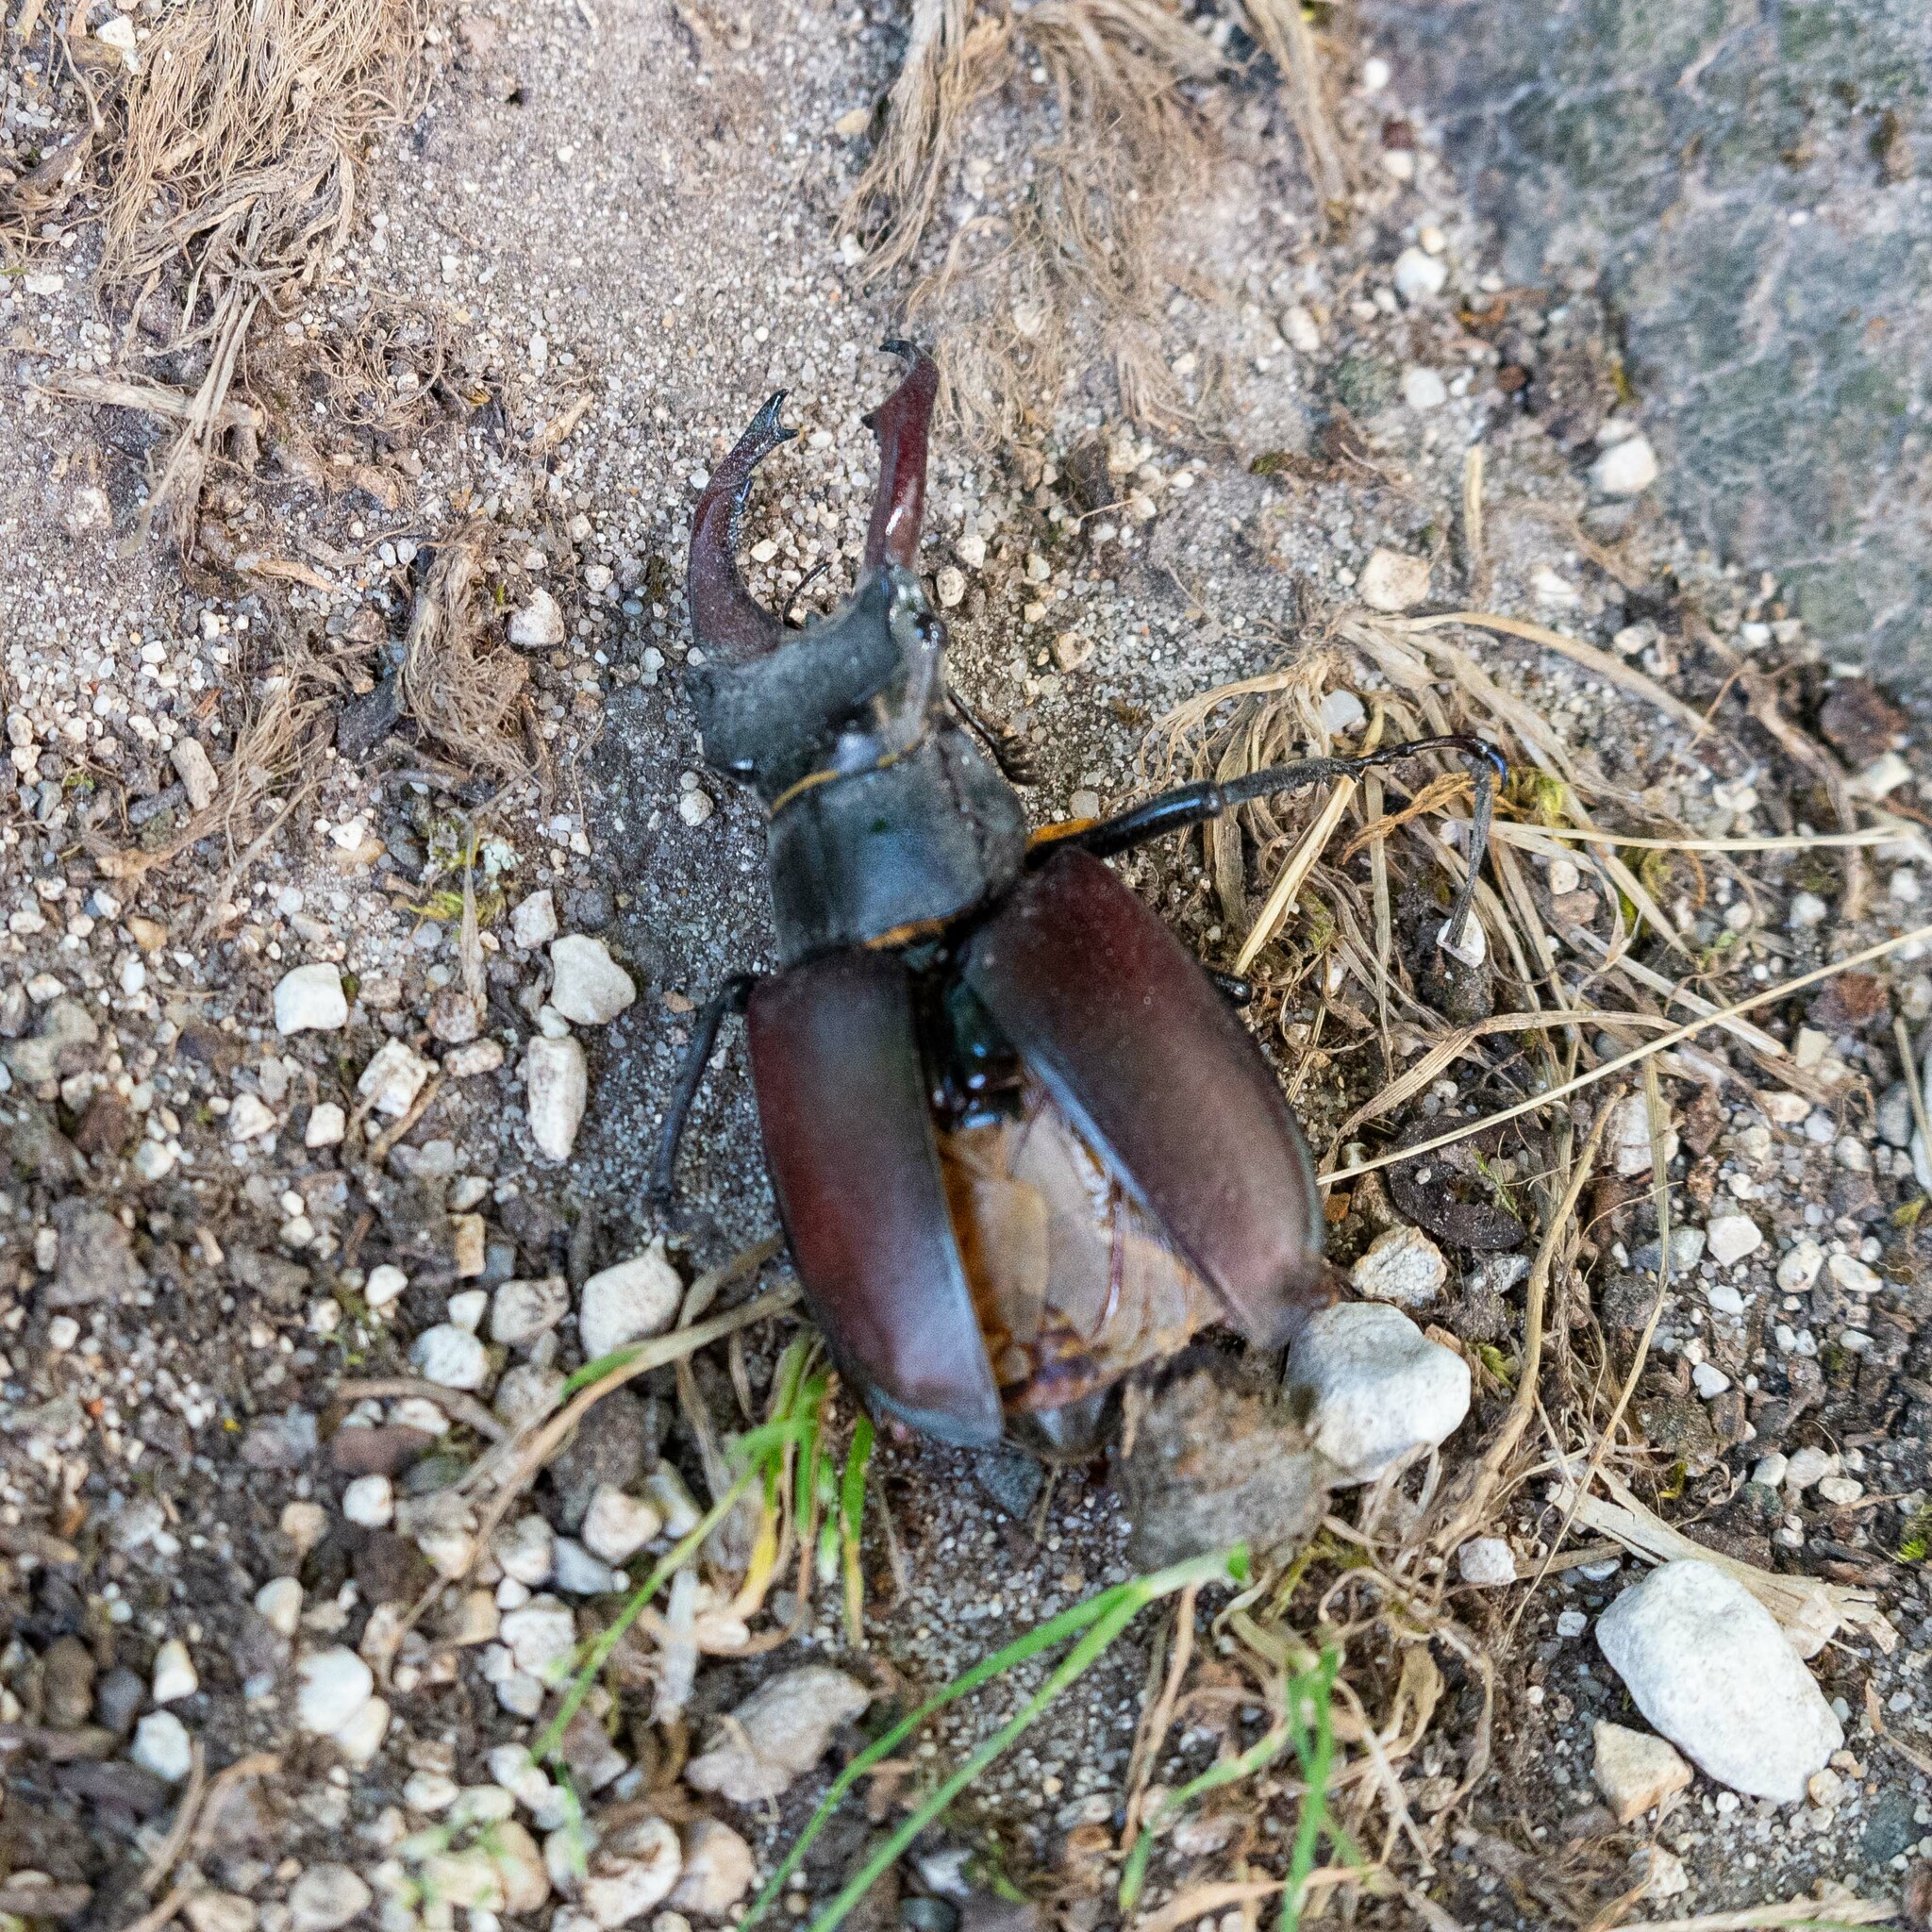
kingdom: Animalia
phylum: Arthropoda
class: Insecta
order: Coleoptera
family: Lucanidae
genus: Lucanus
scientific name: Lucanus cervus
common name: Stag beetle
